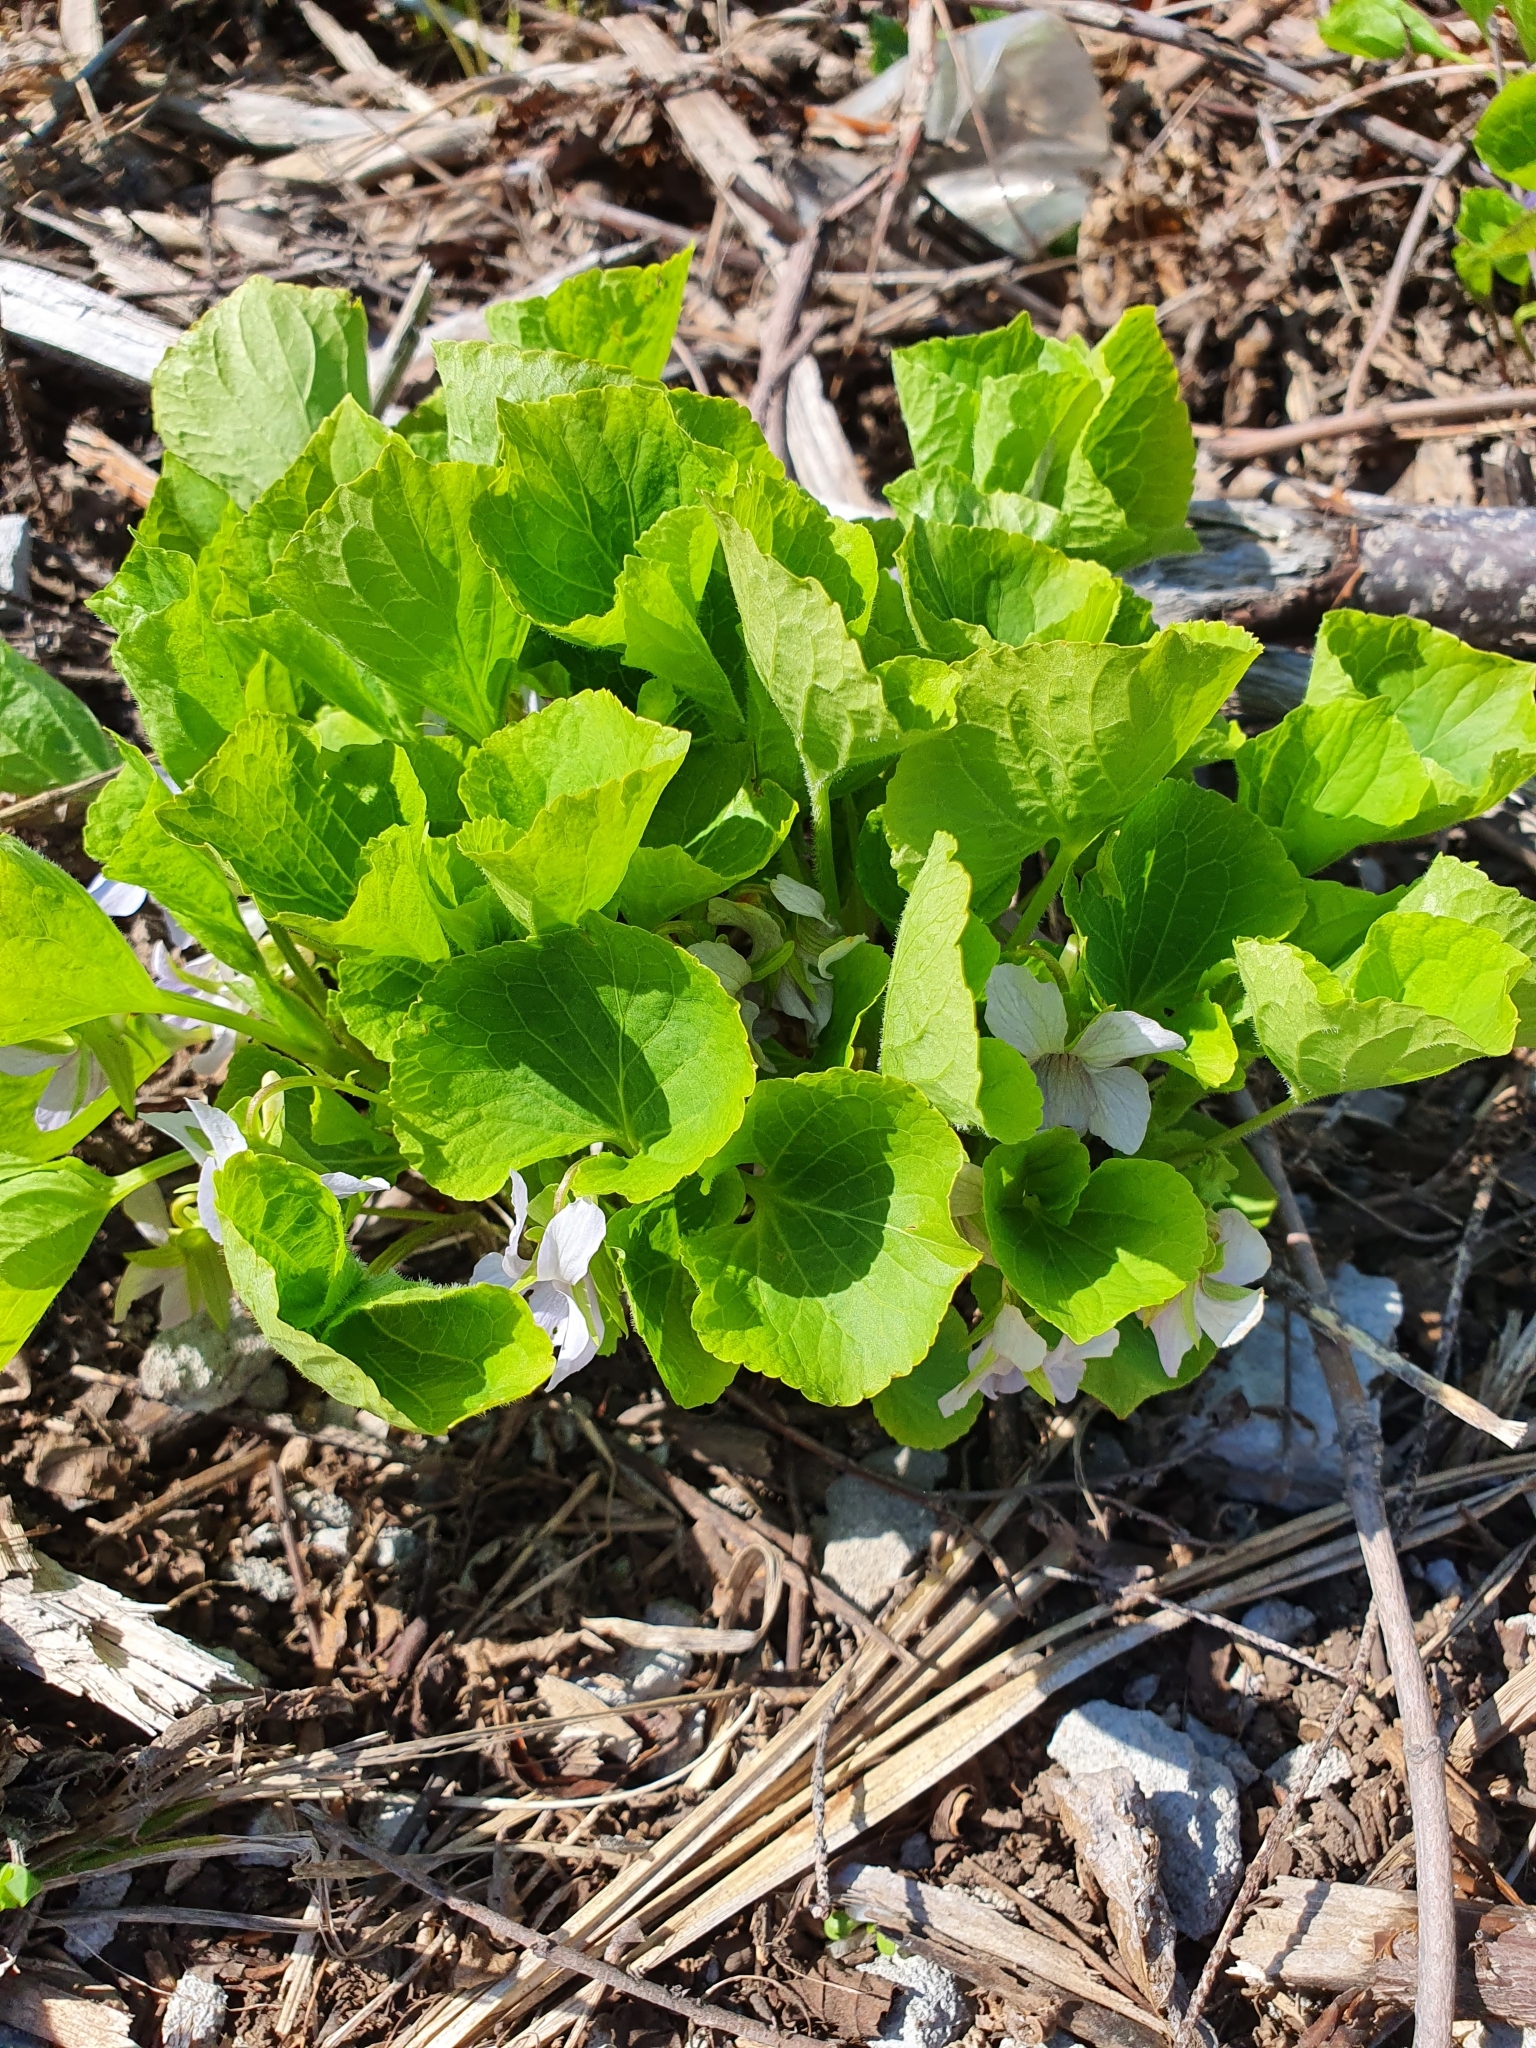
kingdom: Plantae
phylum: Tracheophyta
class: Magnoliopsida
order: Malpighiales
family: Violaceae
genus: Viola
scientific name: Viola mirabilis
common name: Wonder violet
